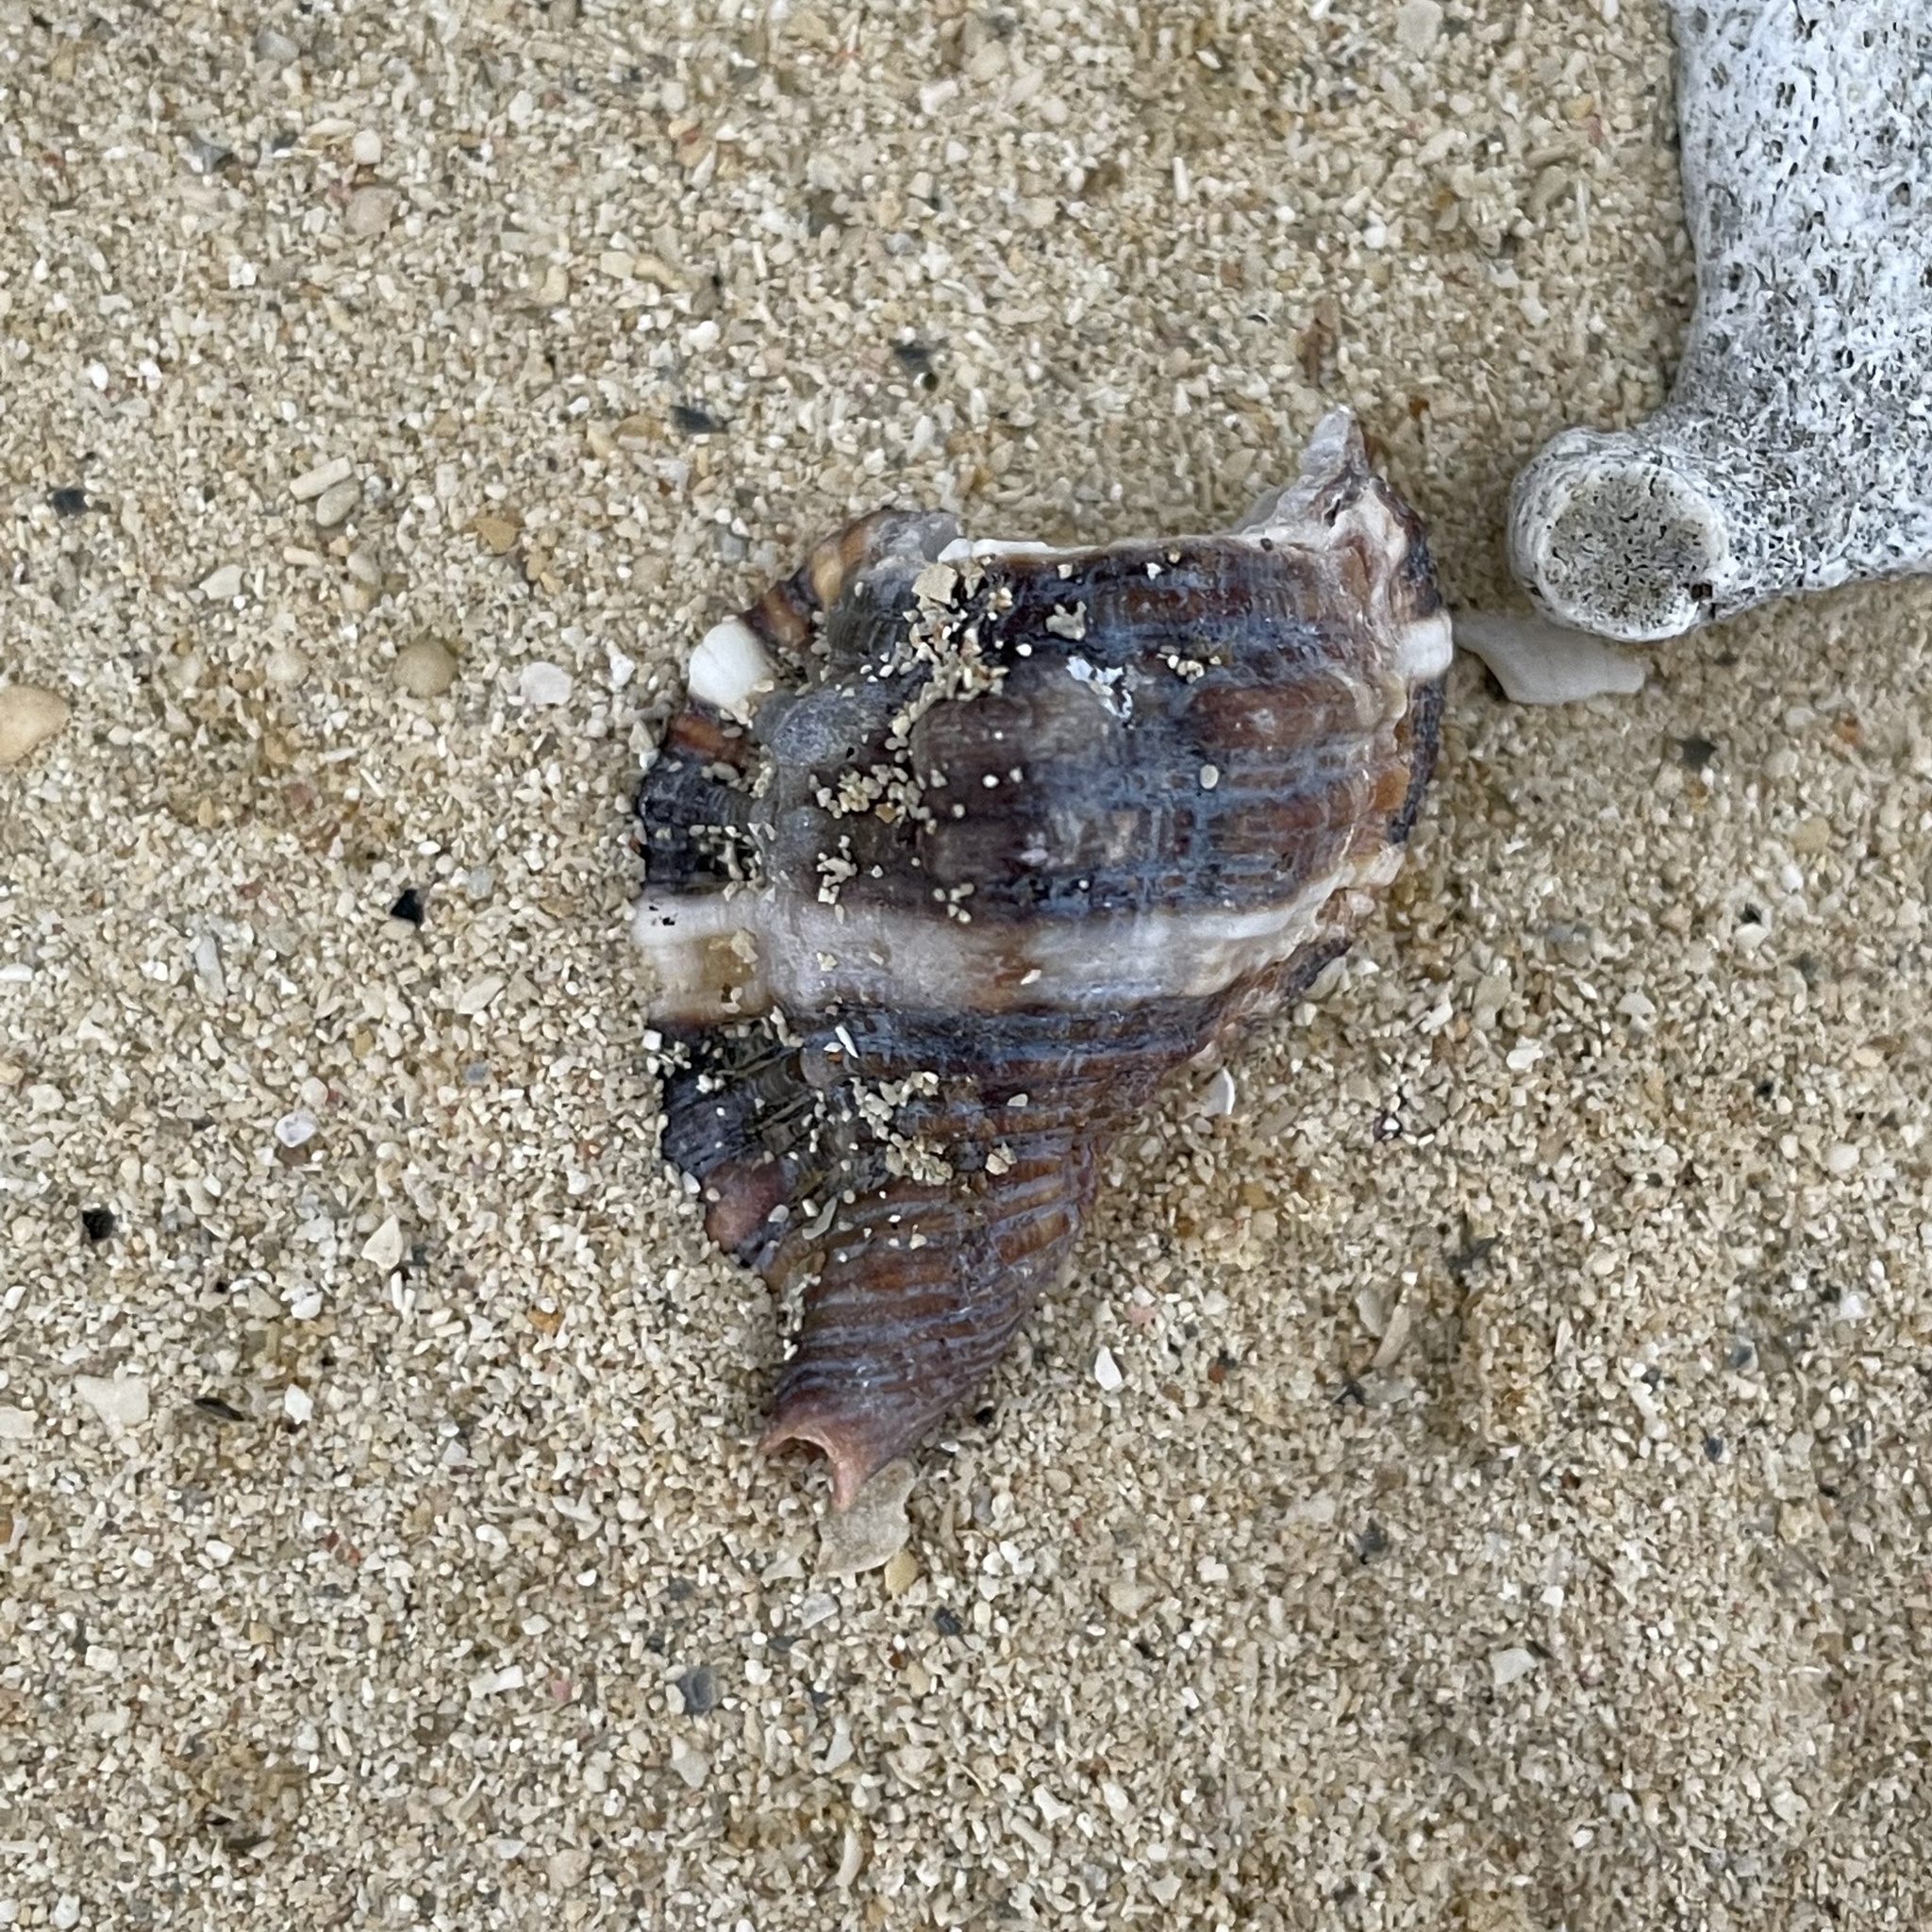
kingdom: Animalia
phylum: Mollusca
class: Gastropoda
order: Littorinimorpha
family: Cymatiidae
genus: Monoplex
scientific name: Monoplex pilearis
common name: Hairy triton
